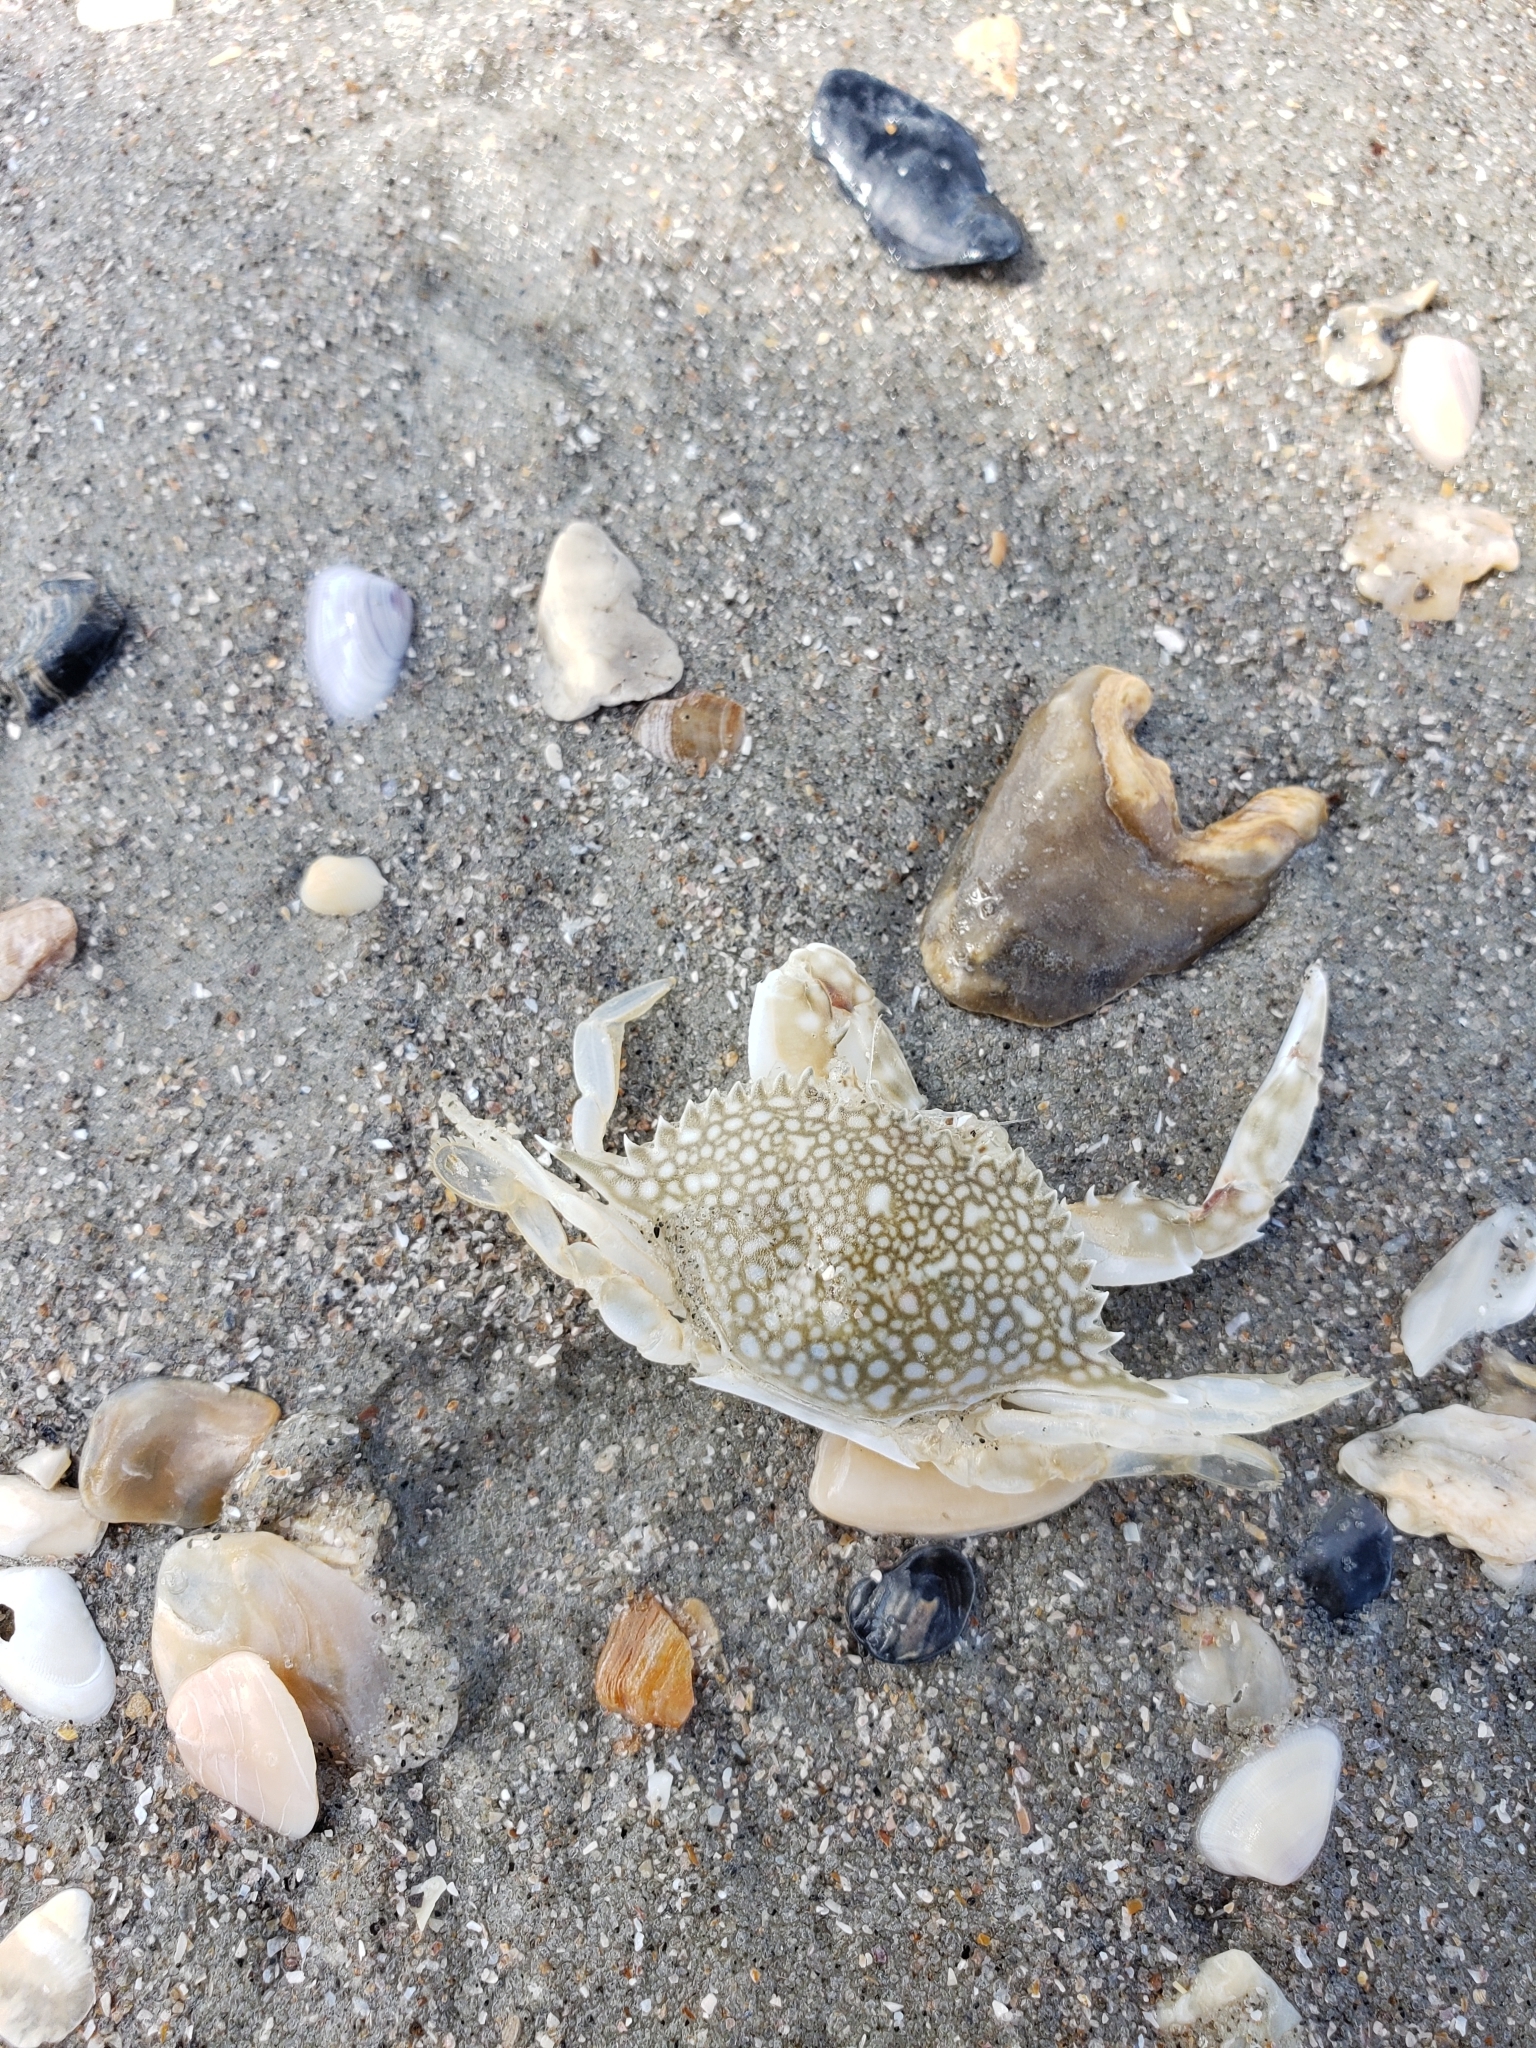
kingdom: Animalia
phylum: Arthropoda
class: Malacostraca
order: Decapoda
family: Portunidae
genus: Arenaeus
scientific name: Arenaeus cribrarius
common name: Speckled crab
